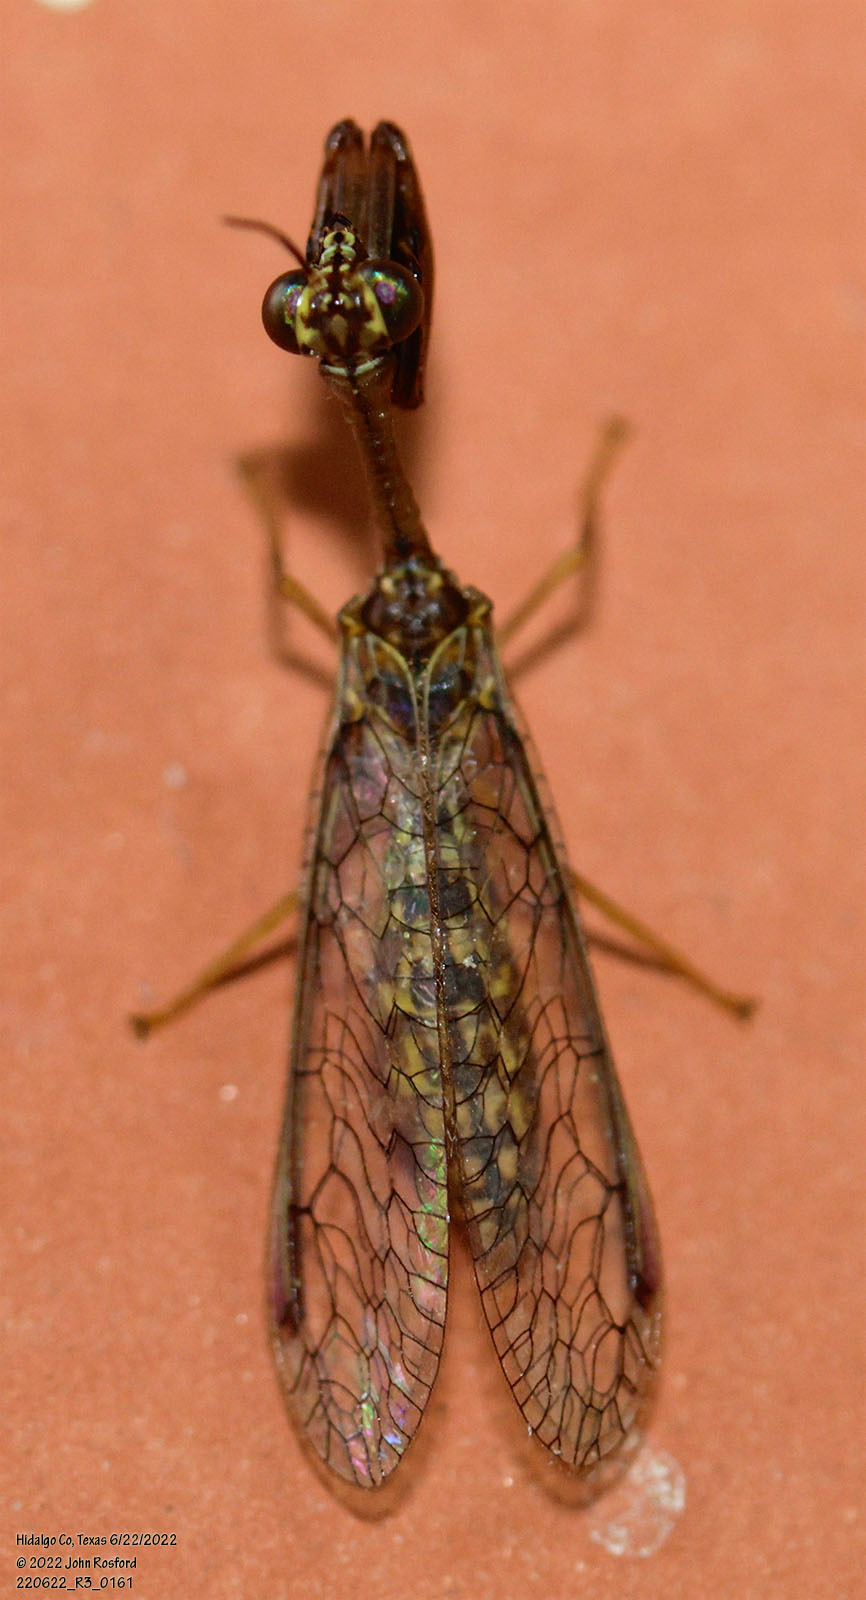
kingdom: Animalia
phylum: Arthropoda
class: Insecta
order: Neuroptera
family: Mantispidae
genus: Dicromantispa
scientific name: Dicromantispa sayi
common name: Say's mantidfly
